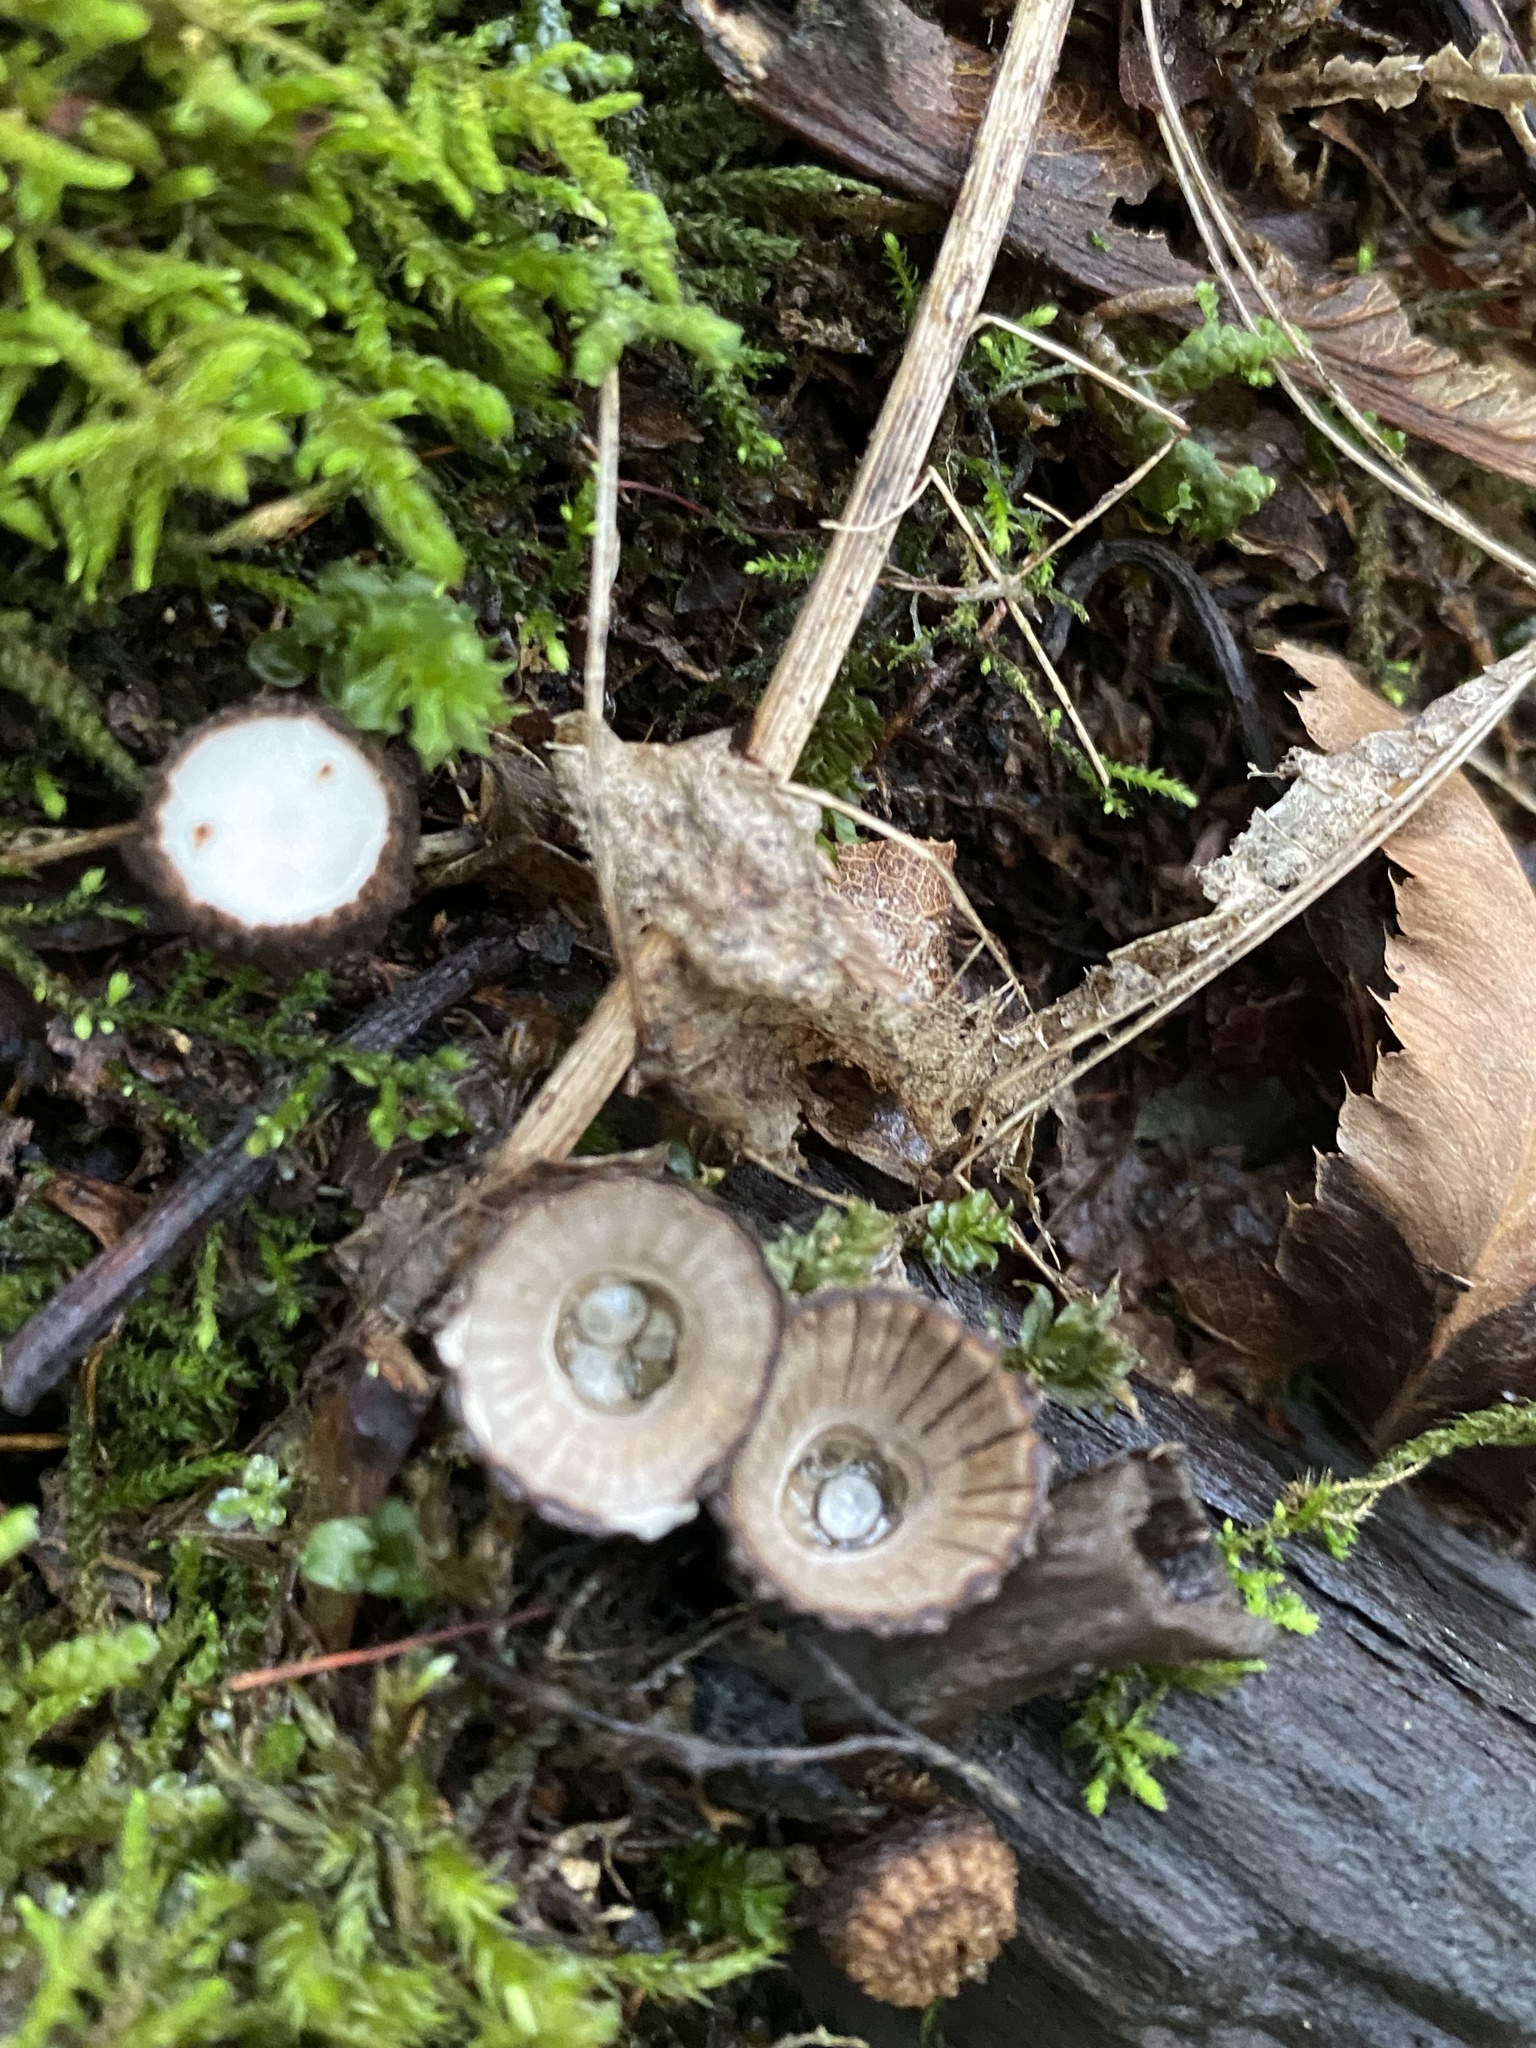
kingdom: Fungi
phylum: Basidiomycota
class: Agaricomycetes
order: Agaricales
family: Agaricaceae
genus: Cyathus
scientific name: Cyathus striatus
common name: Fluted bird's nest
